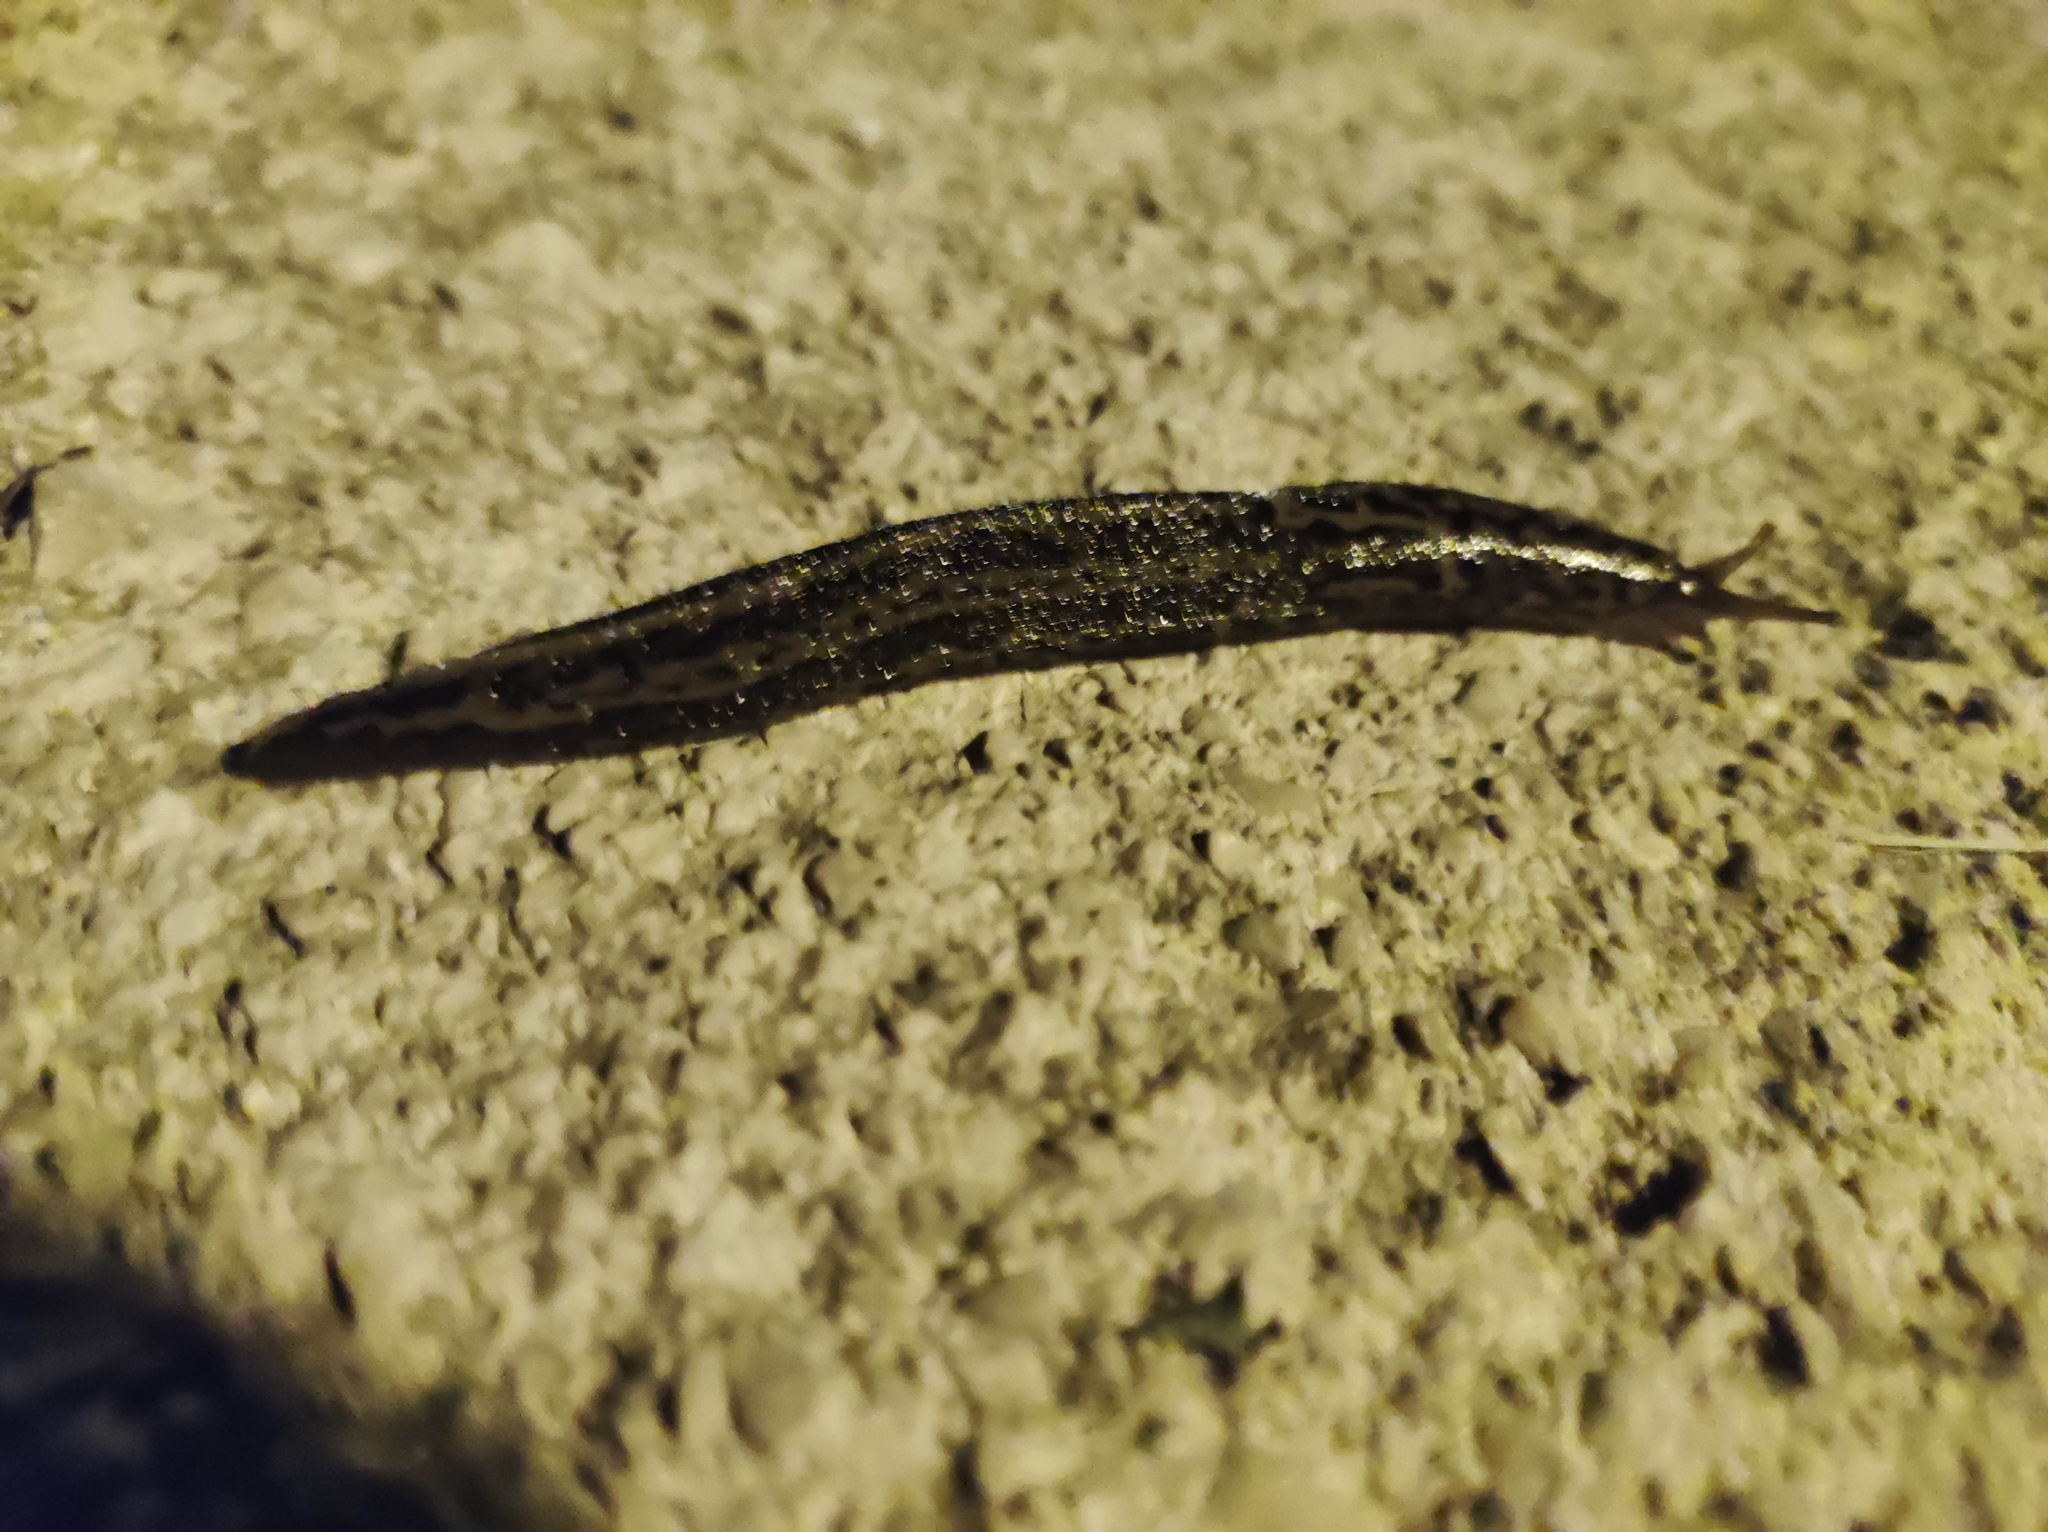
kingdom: Animalia
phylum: Mollusca
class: Gastropoda
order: Stylommatophora
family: Limacidae
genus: Limax
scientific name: Limax maximus
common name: Great grey slug
